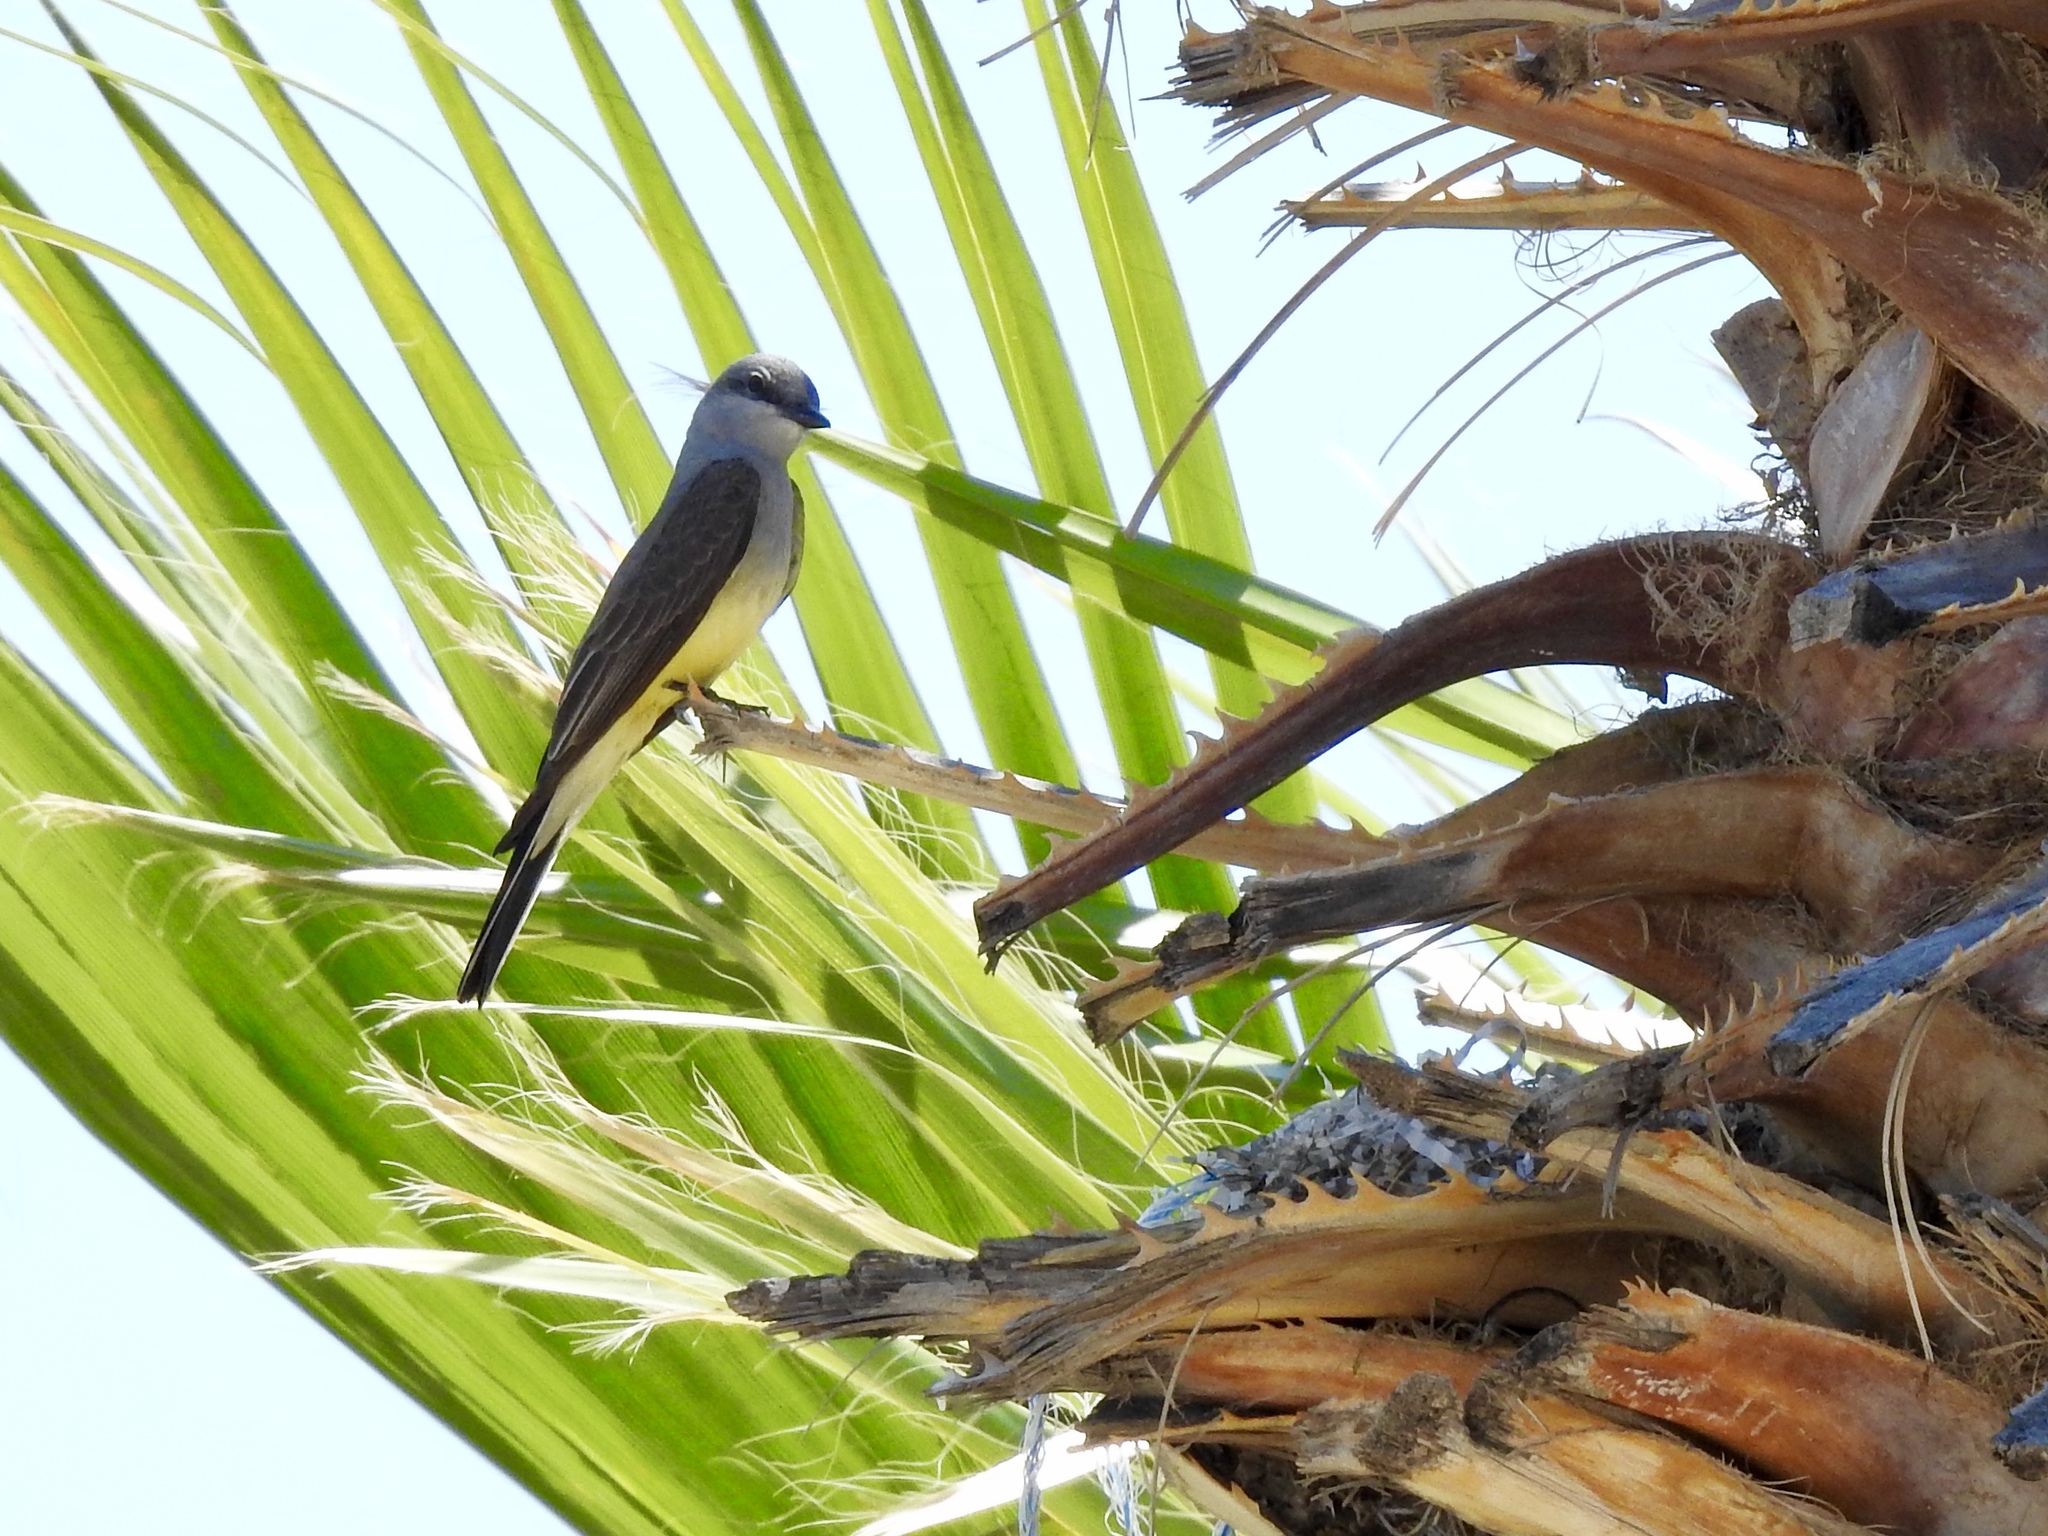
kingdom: Animalia
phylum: Chordata
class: Aves
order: Passeriformes
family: Tyrannidae
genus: Tyrannus
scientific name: Tyrannus verticalis
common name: Western kingbird
